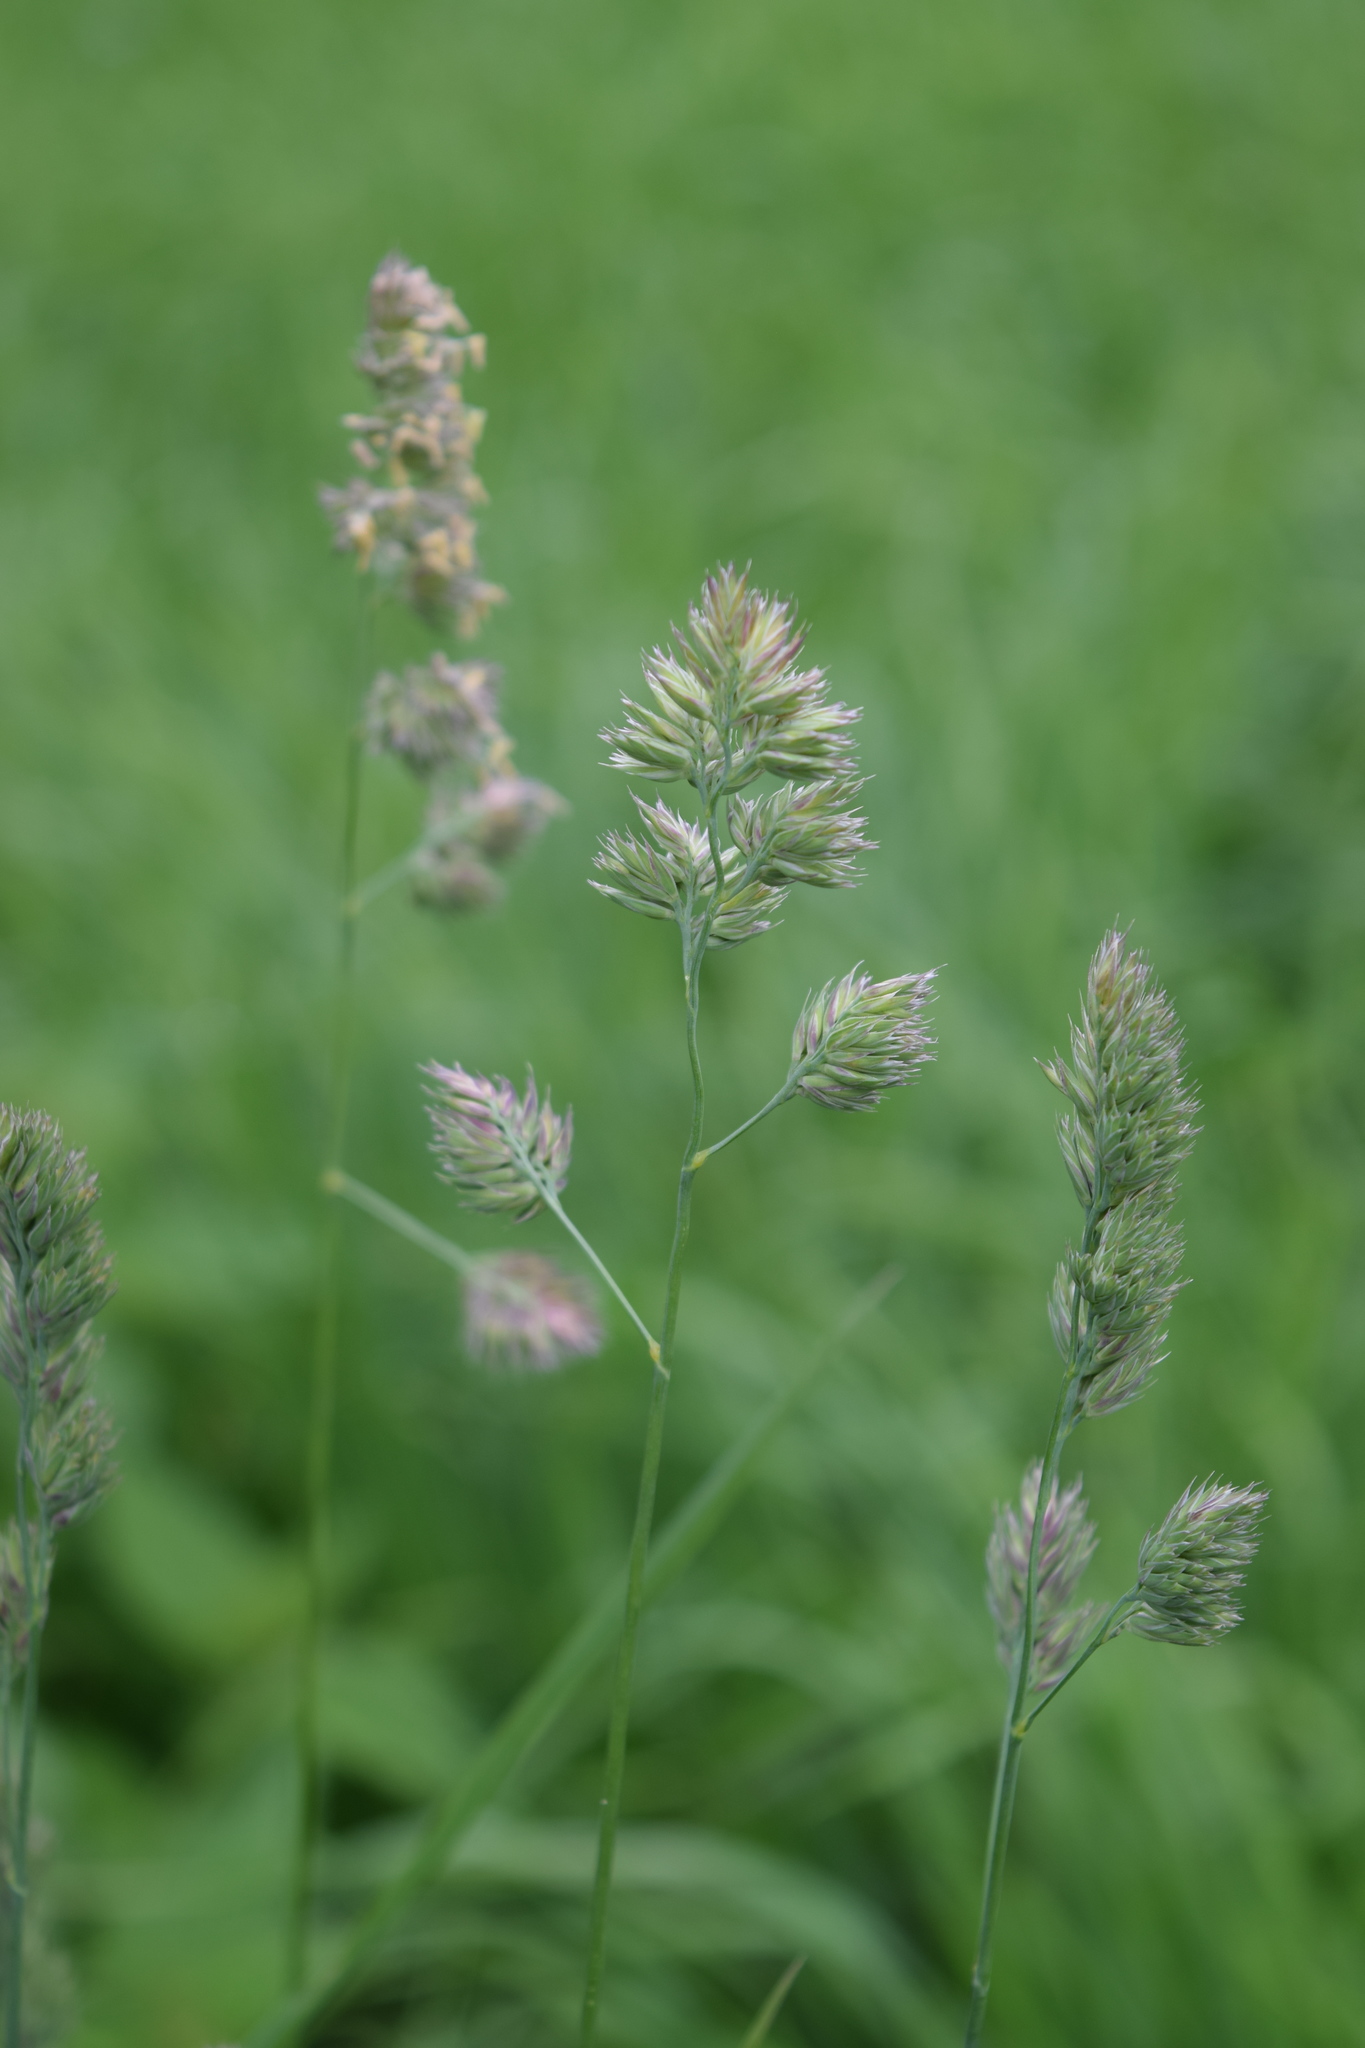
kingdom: Plantae
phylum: Tracheophyta
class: Liliopsida
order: Poales
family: Poaceae
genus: Dactylis
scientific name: Dactylis glomerata
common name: Orchardgrass
